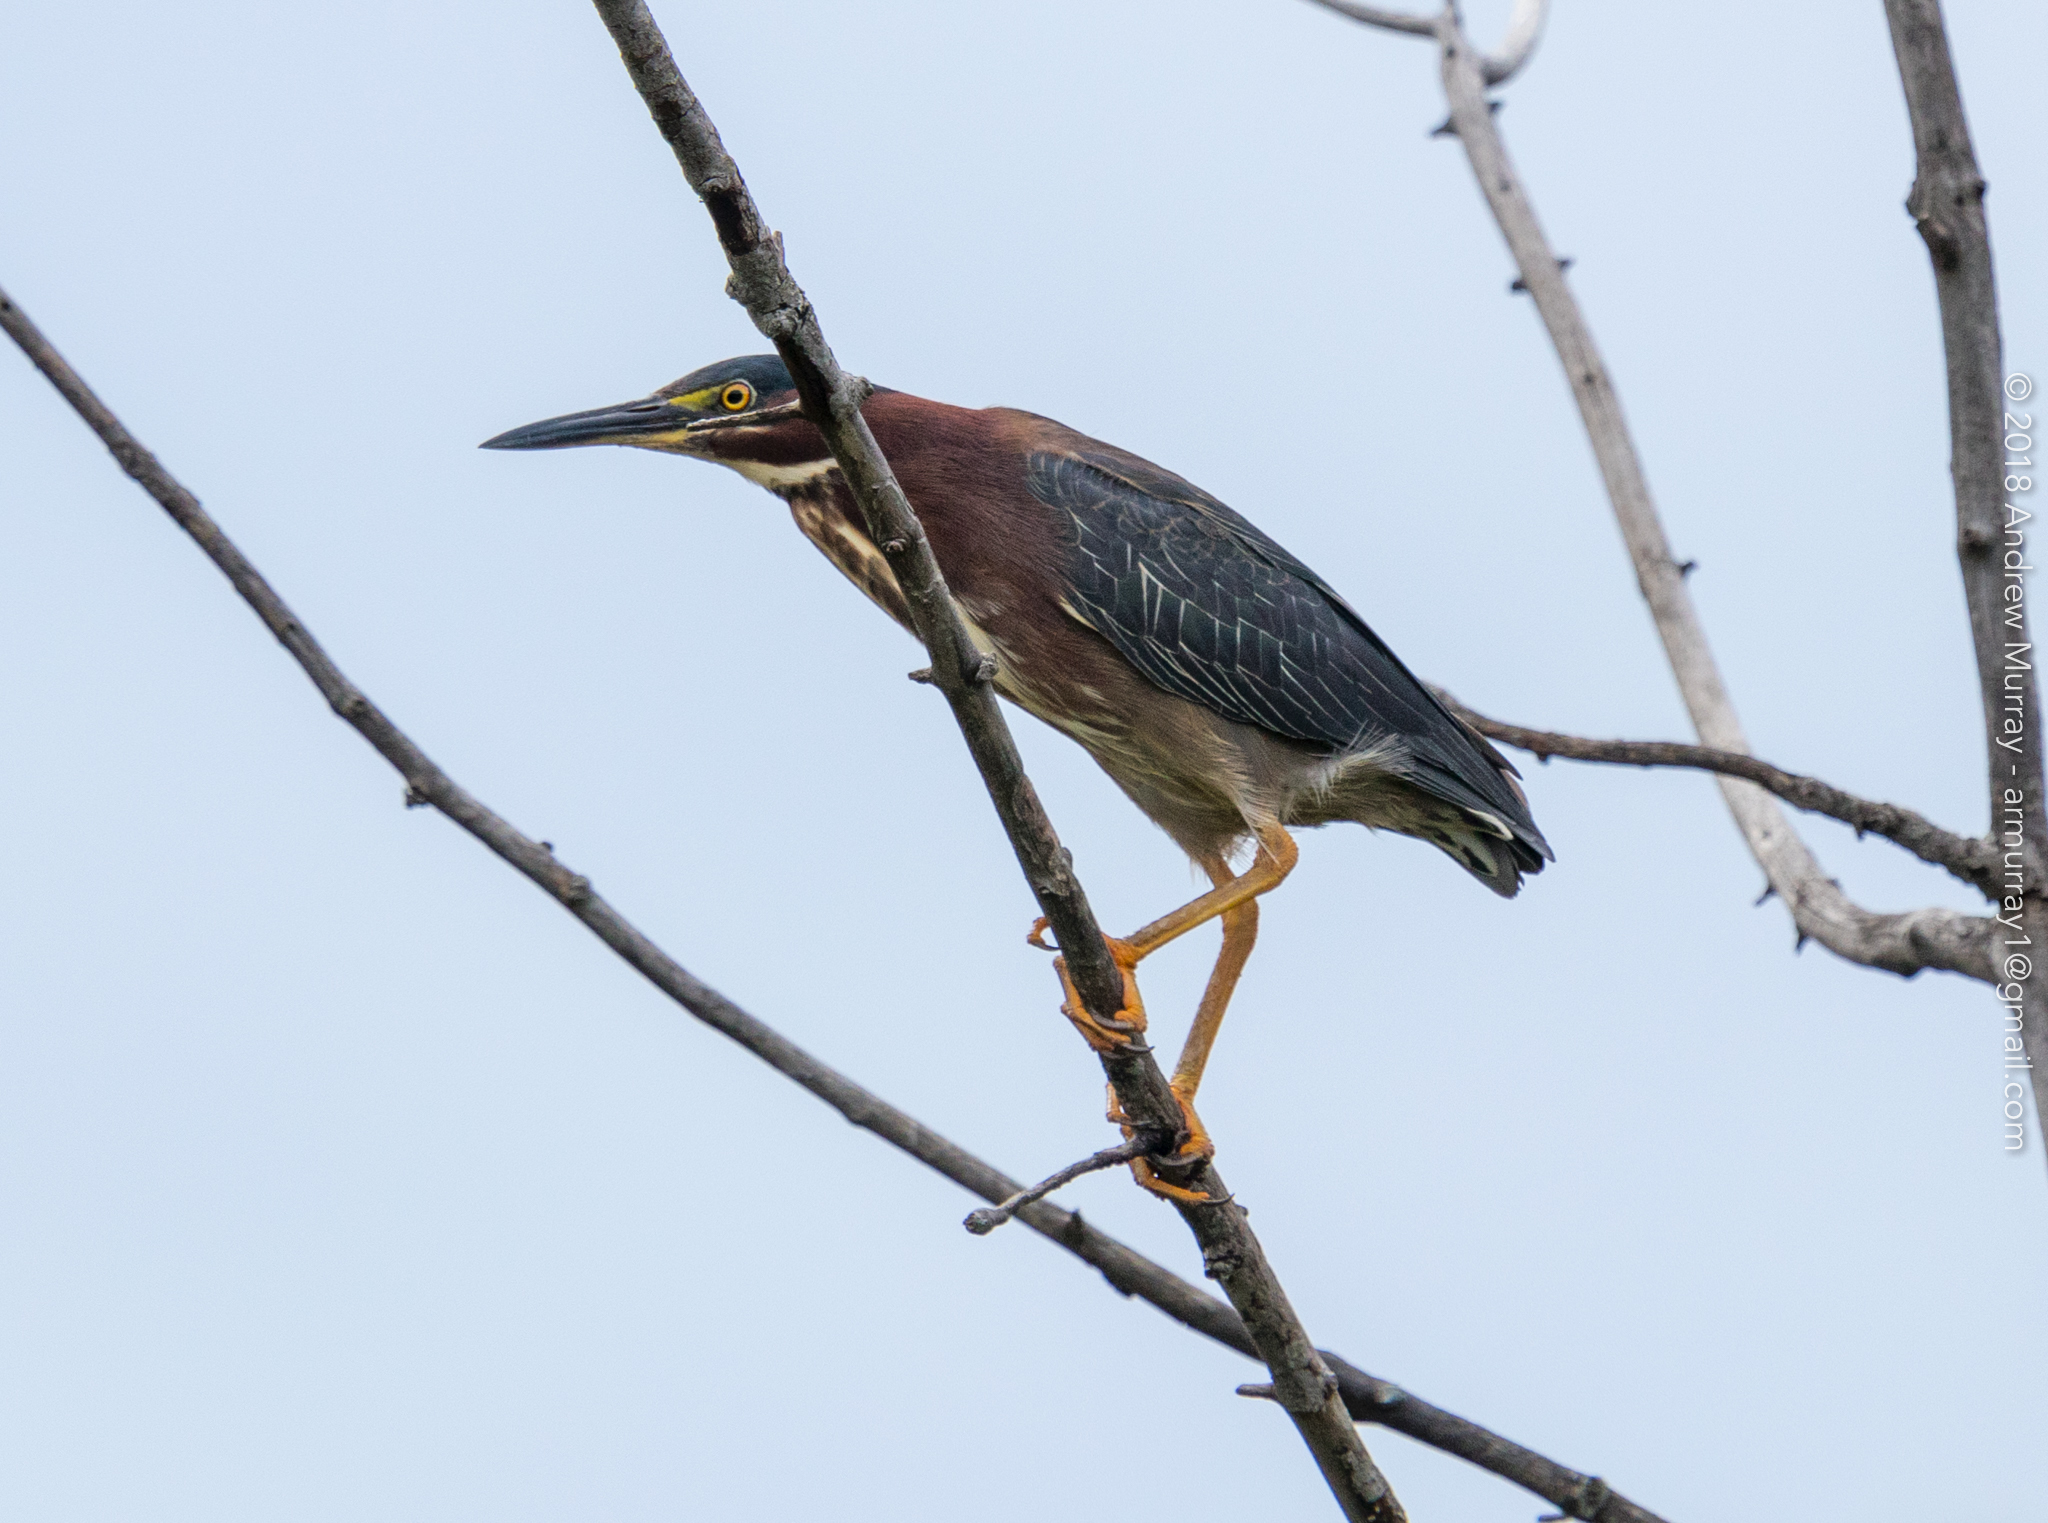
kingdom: Animalia
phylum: Chordata
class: Aves
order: Pelecaniformes
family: Ardeidae
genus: Butorides
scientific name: Butorides virescens
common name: Green heron
